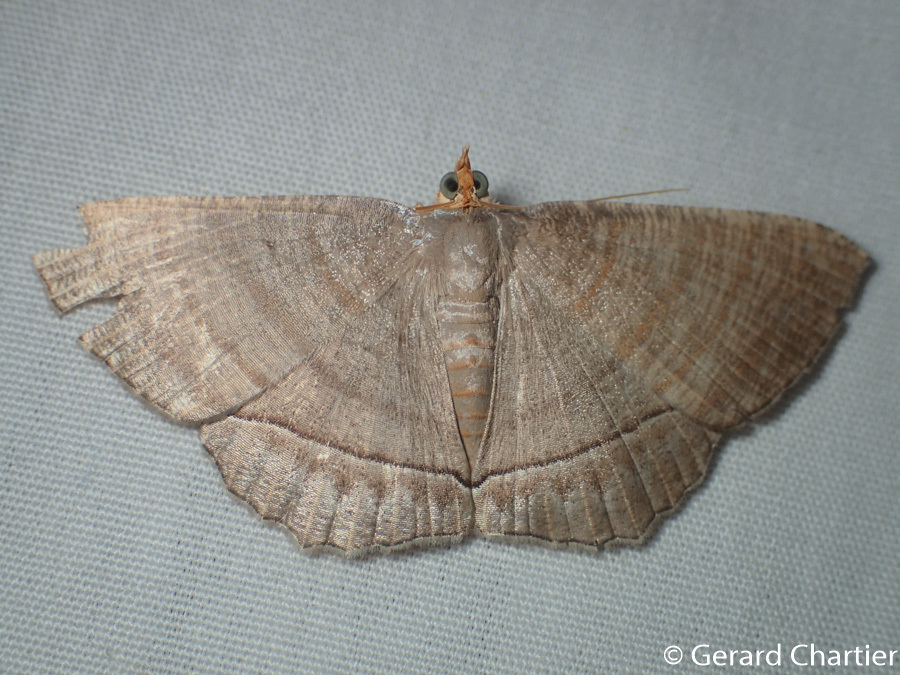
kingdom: Animalia
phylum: Arthropoda
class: Insecta
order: Lepidoptera
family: Geometridae
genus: Bulonga
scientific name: Bulonga schistacearia
